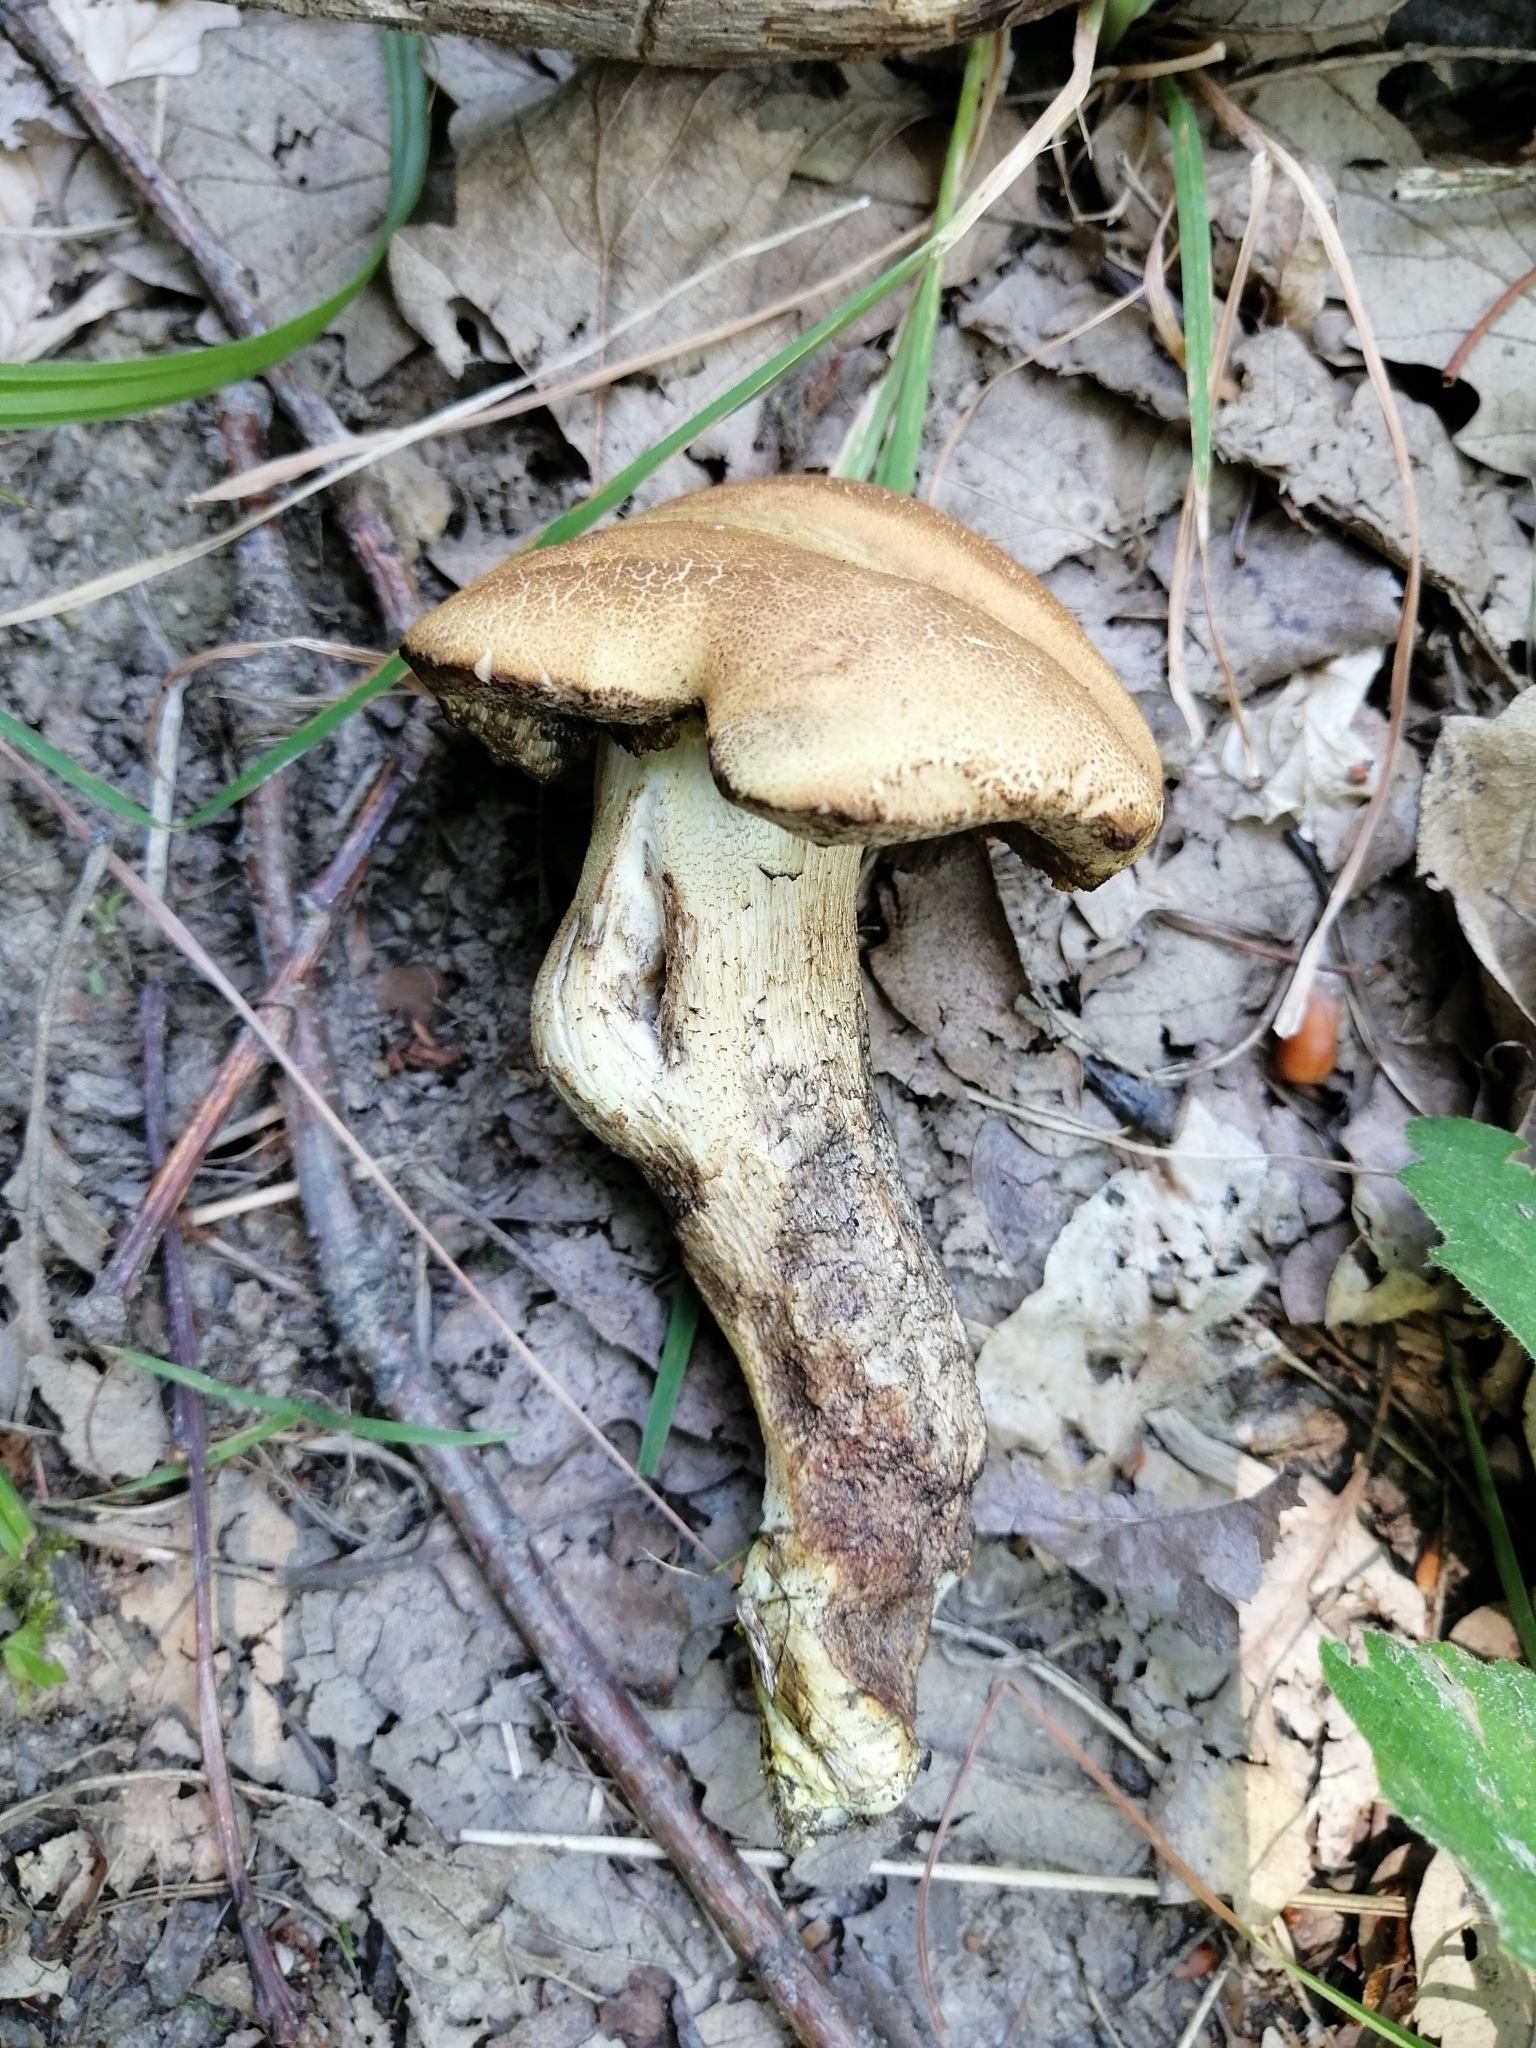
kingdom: Fungi
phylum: Basidiomycota
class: Agaricomycetes
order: Boletales
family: Boletaceae
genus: Leccinellum
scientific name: Leccinellum crocipodium
